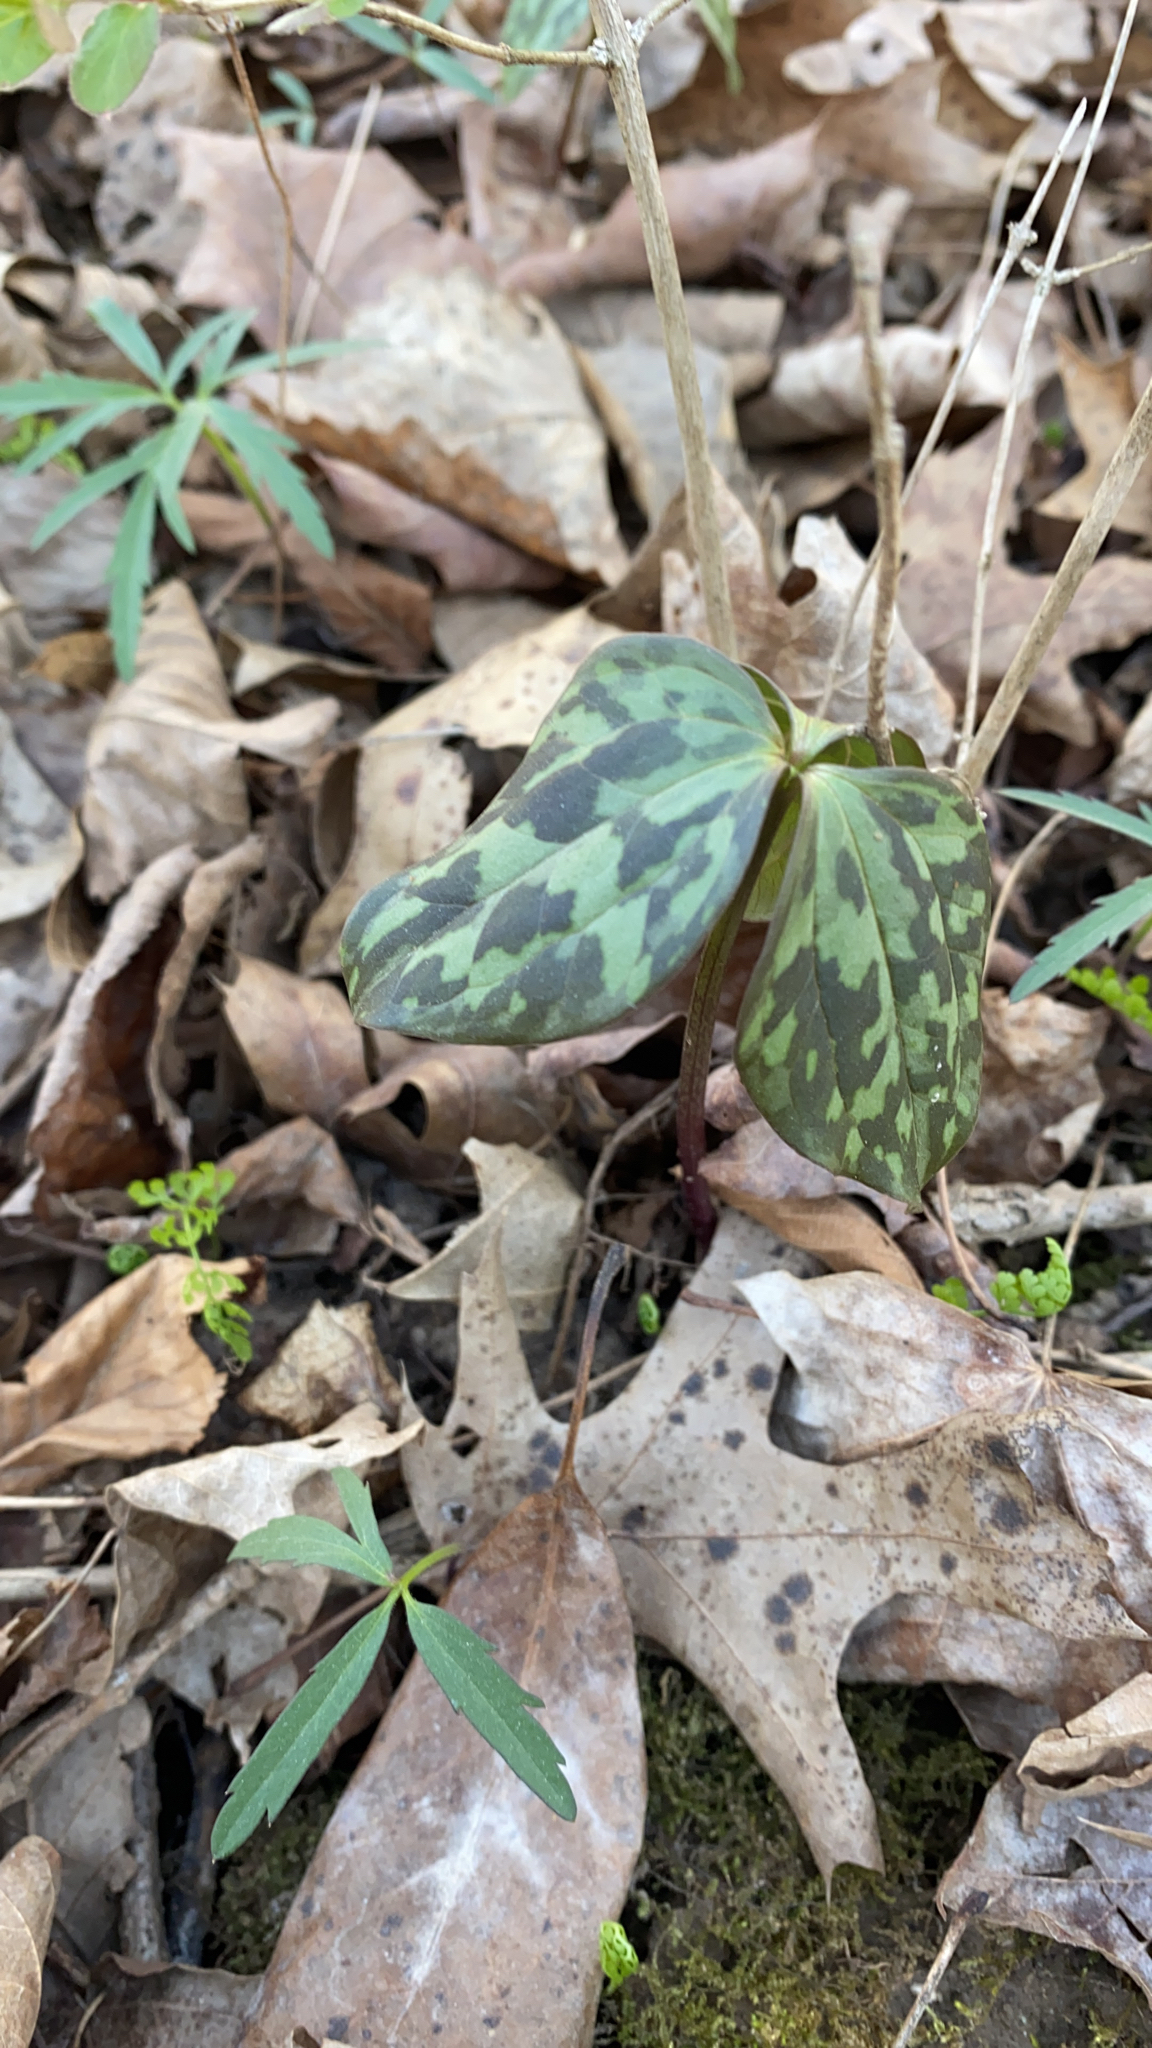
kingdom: Plantae
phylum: Tracheophyta
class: Liliopsida
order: Liliales
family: Melanthiaceae
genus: Trillium
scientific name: Trillium recurvatum
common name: Bloody butcher
